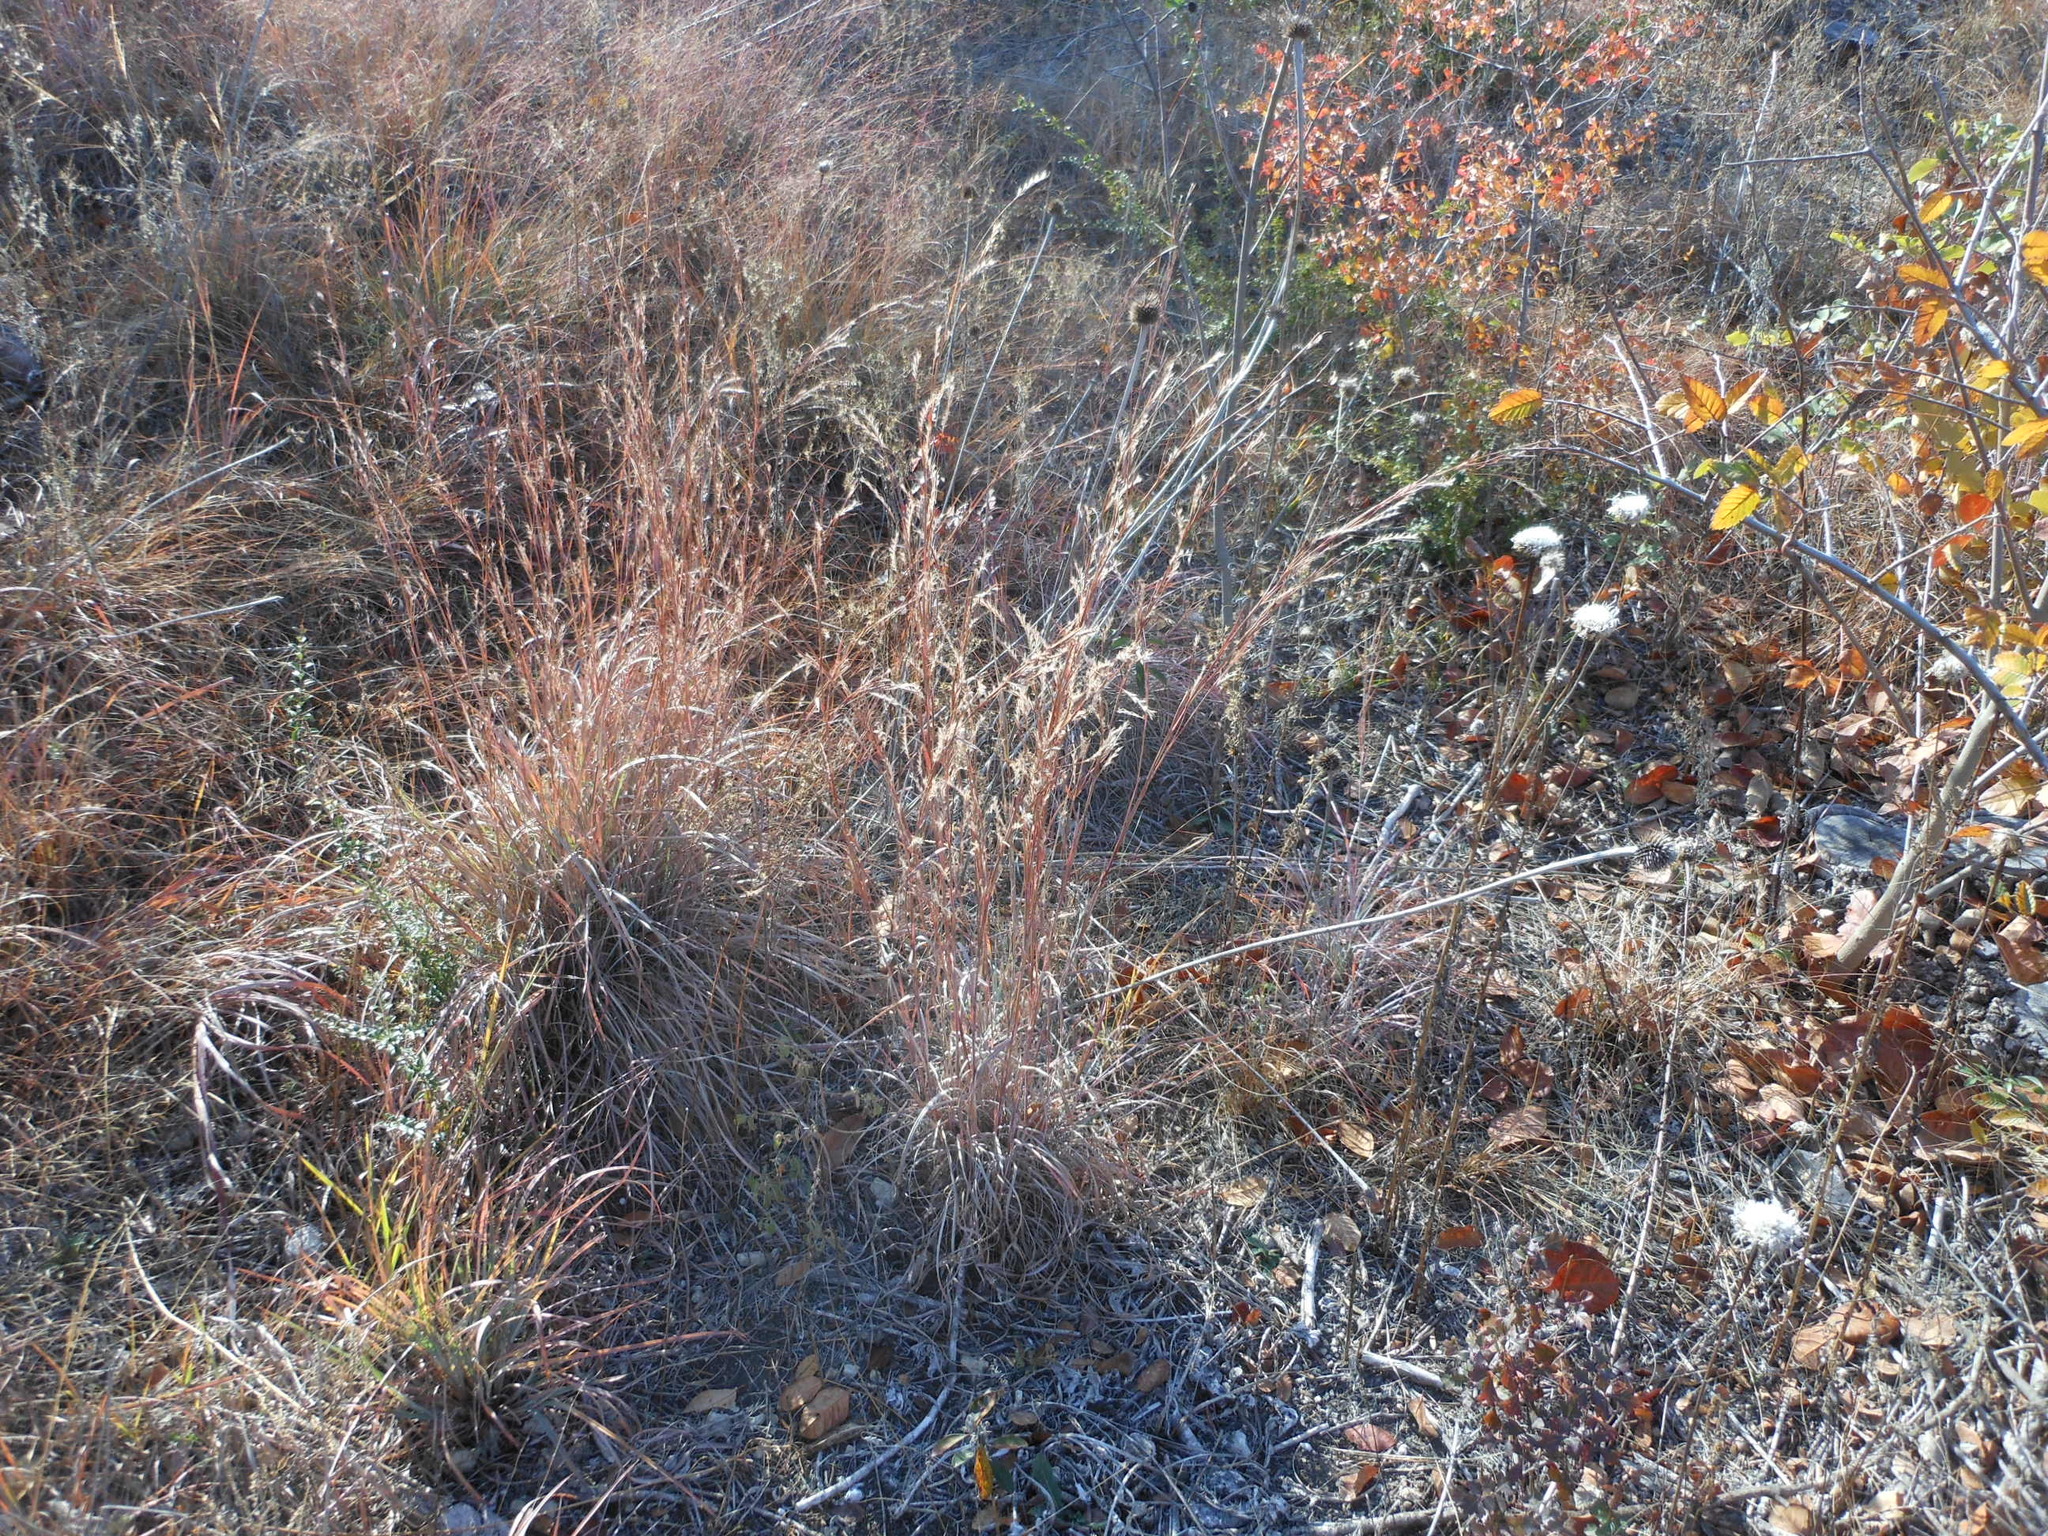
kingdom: Plantae
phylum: Tracheophyta
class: Liliopsida
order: Poales
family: Poaceae
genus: Schizachyrium
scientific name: Schizachyrium scoparium
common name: Little bluestem
